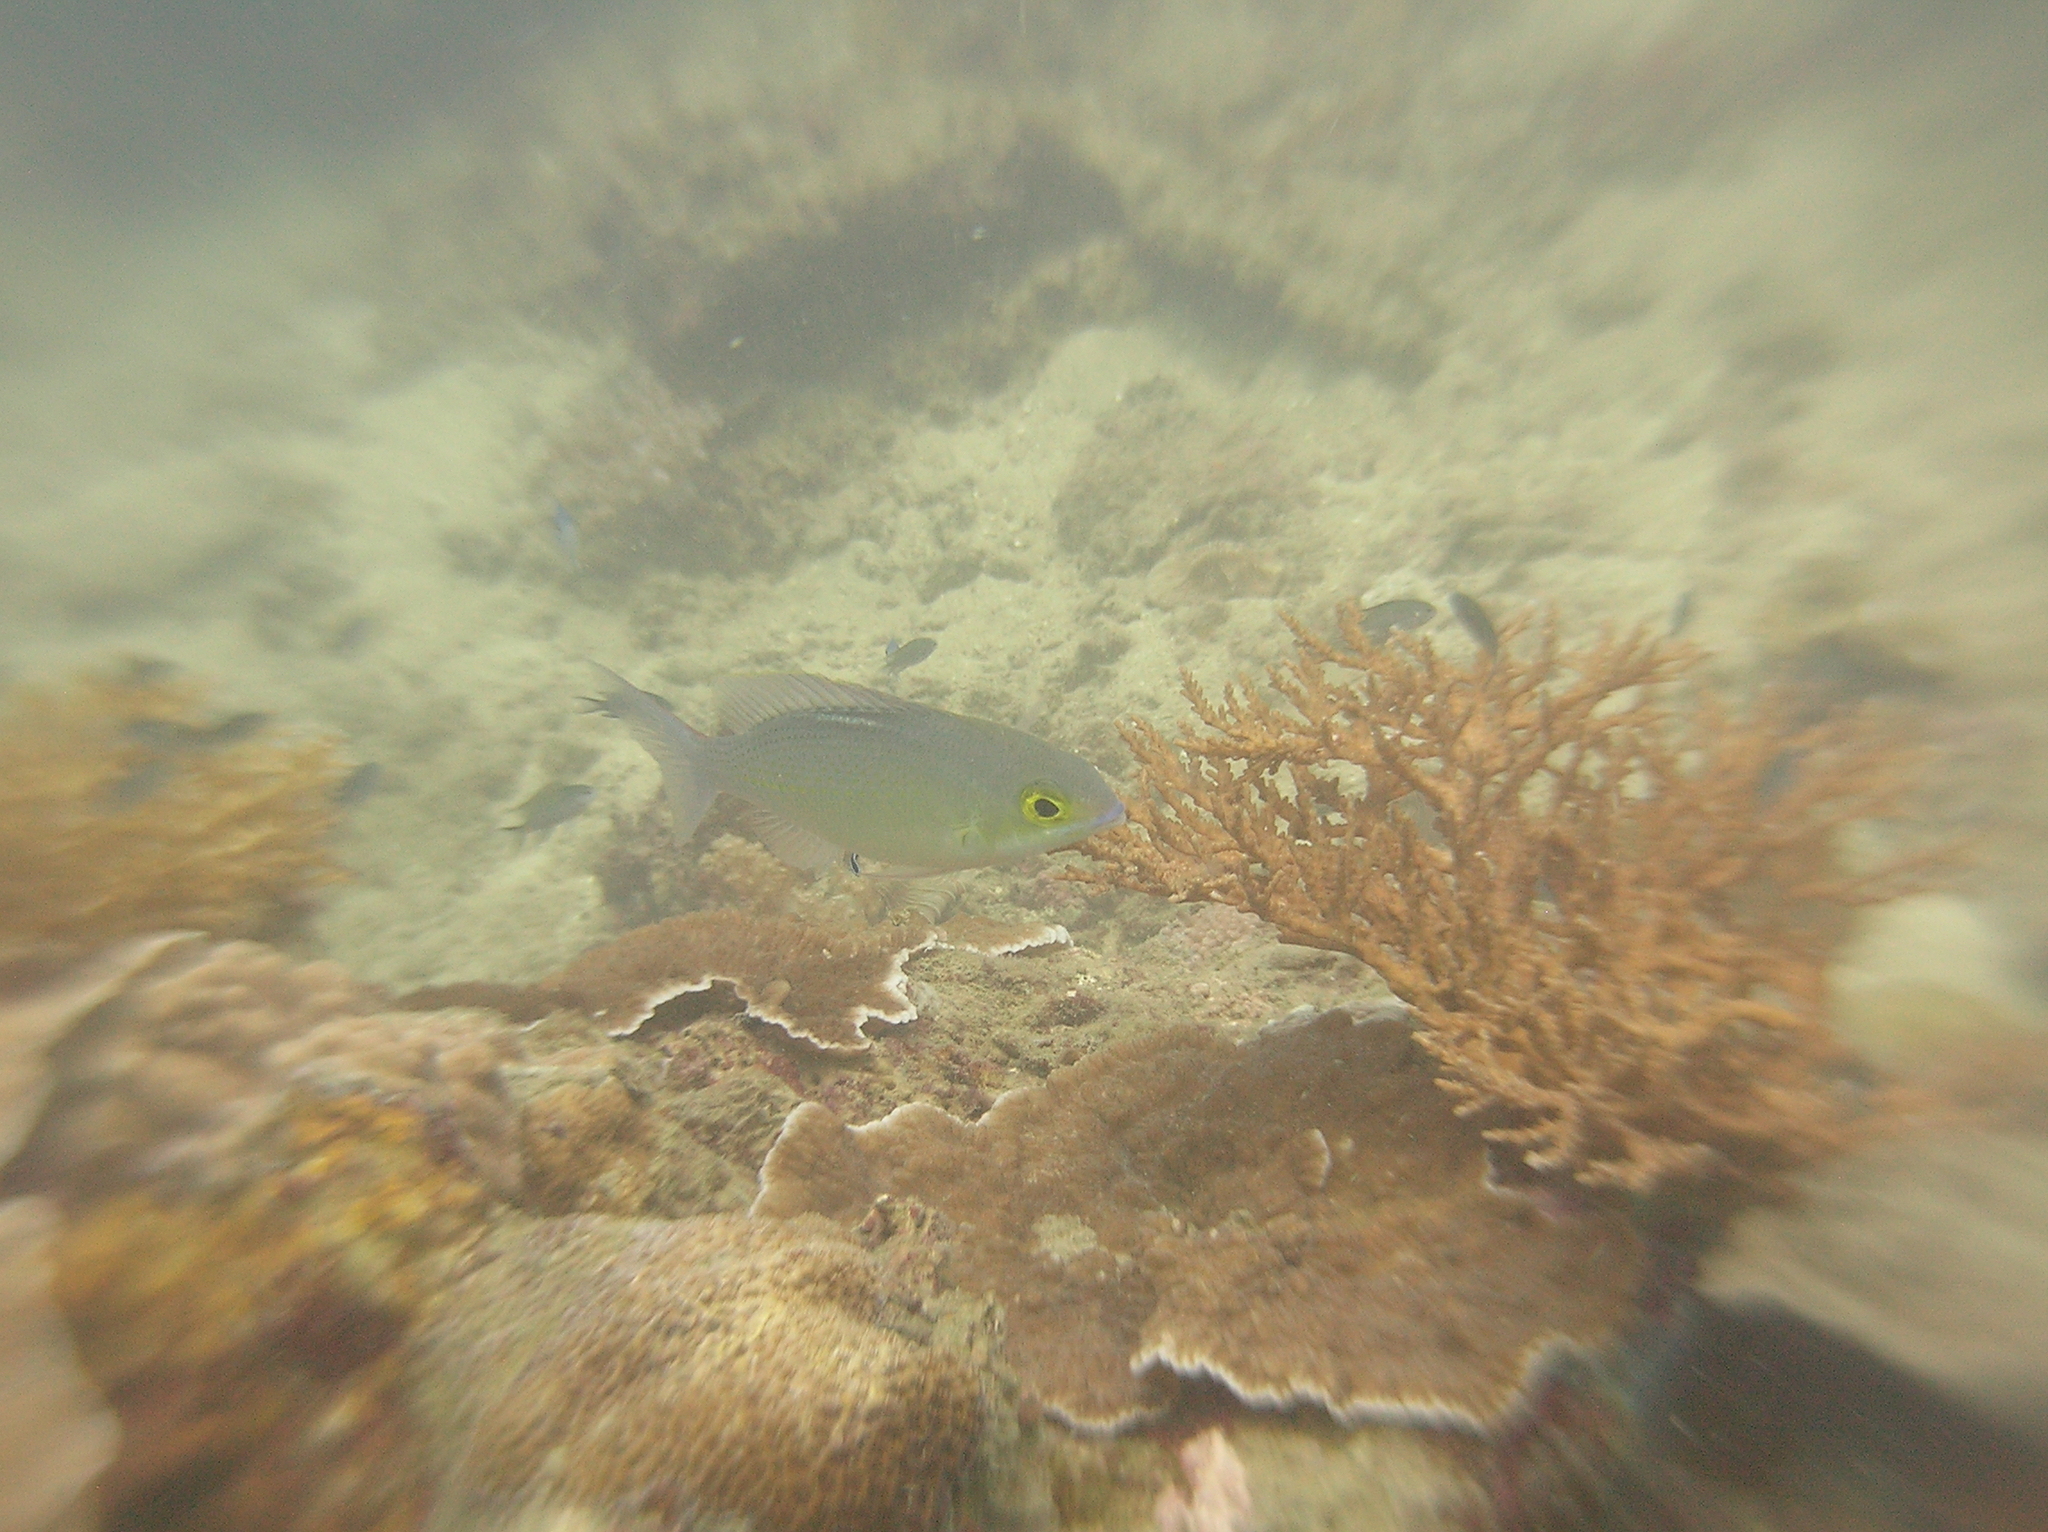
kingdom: Animalia
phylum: Chordata
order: Perciformes
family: Nemipteridae
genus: Scolopsis
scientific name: Scolopsis ciliata
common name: Ciliate spinecheek
